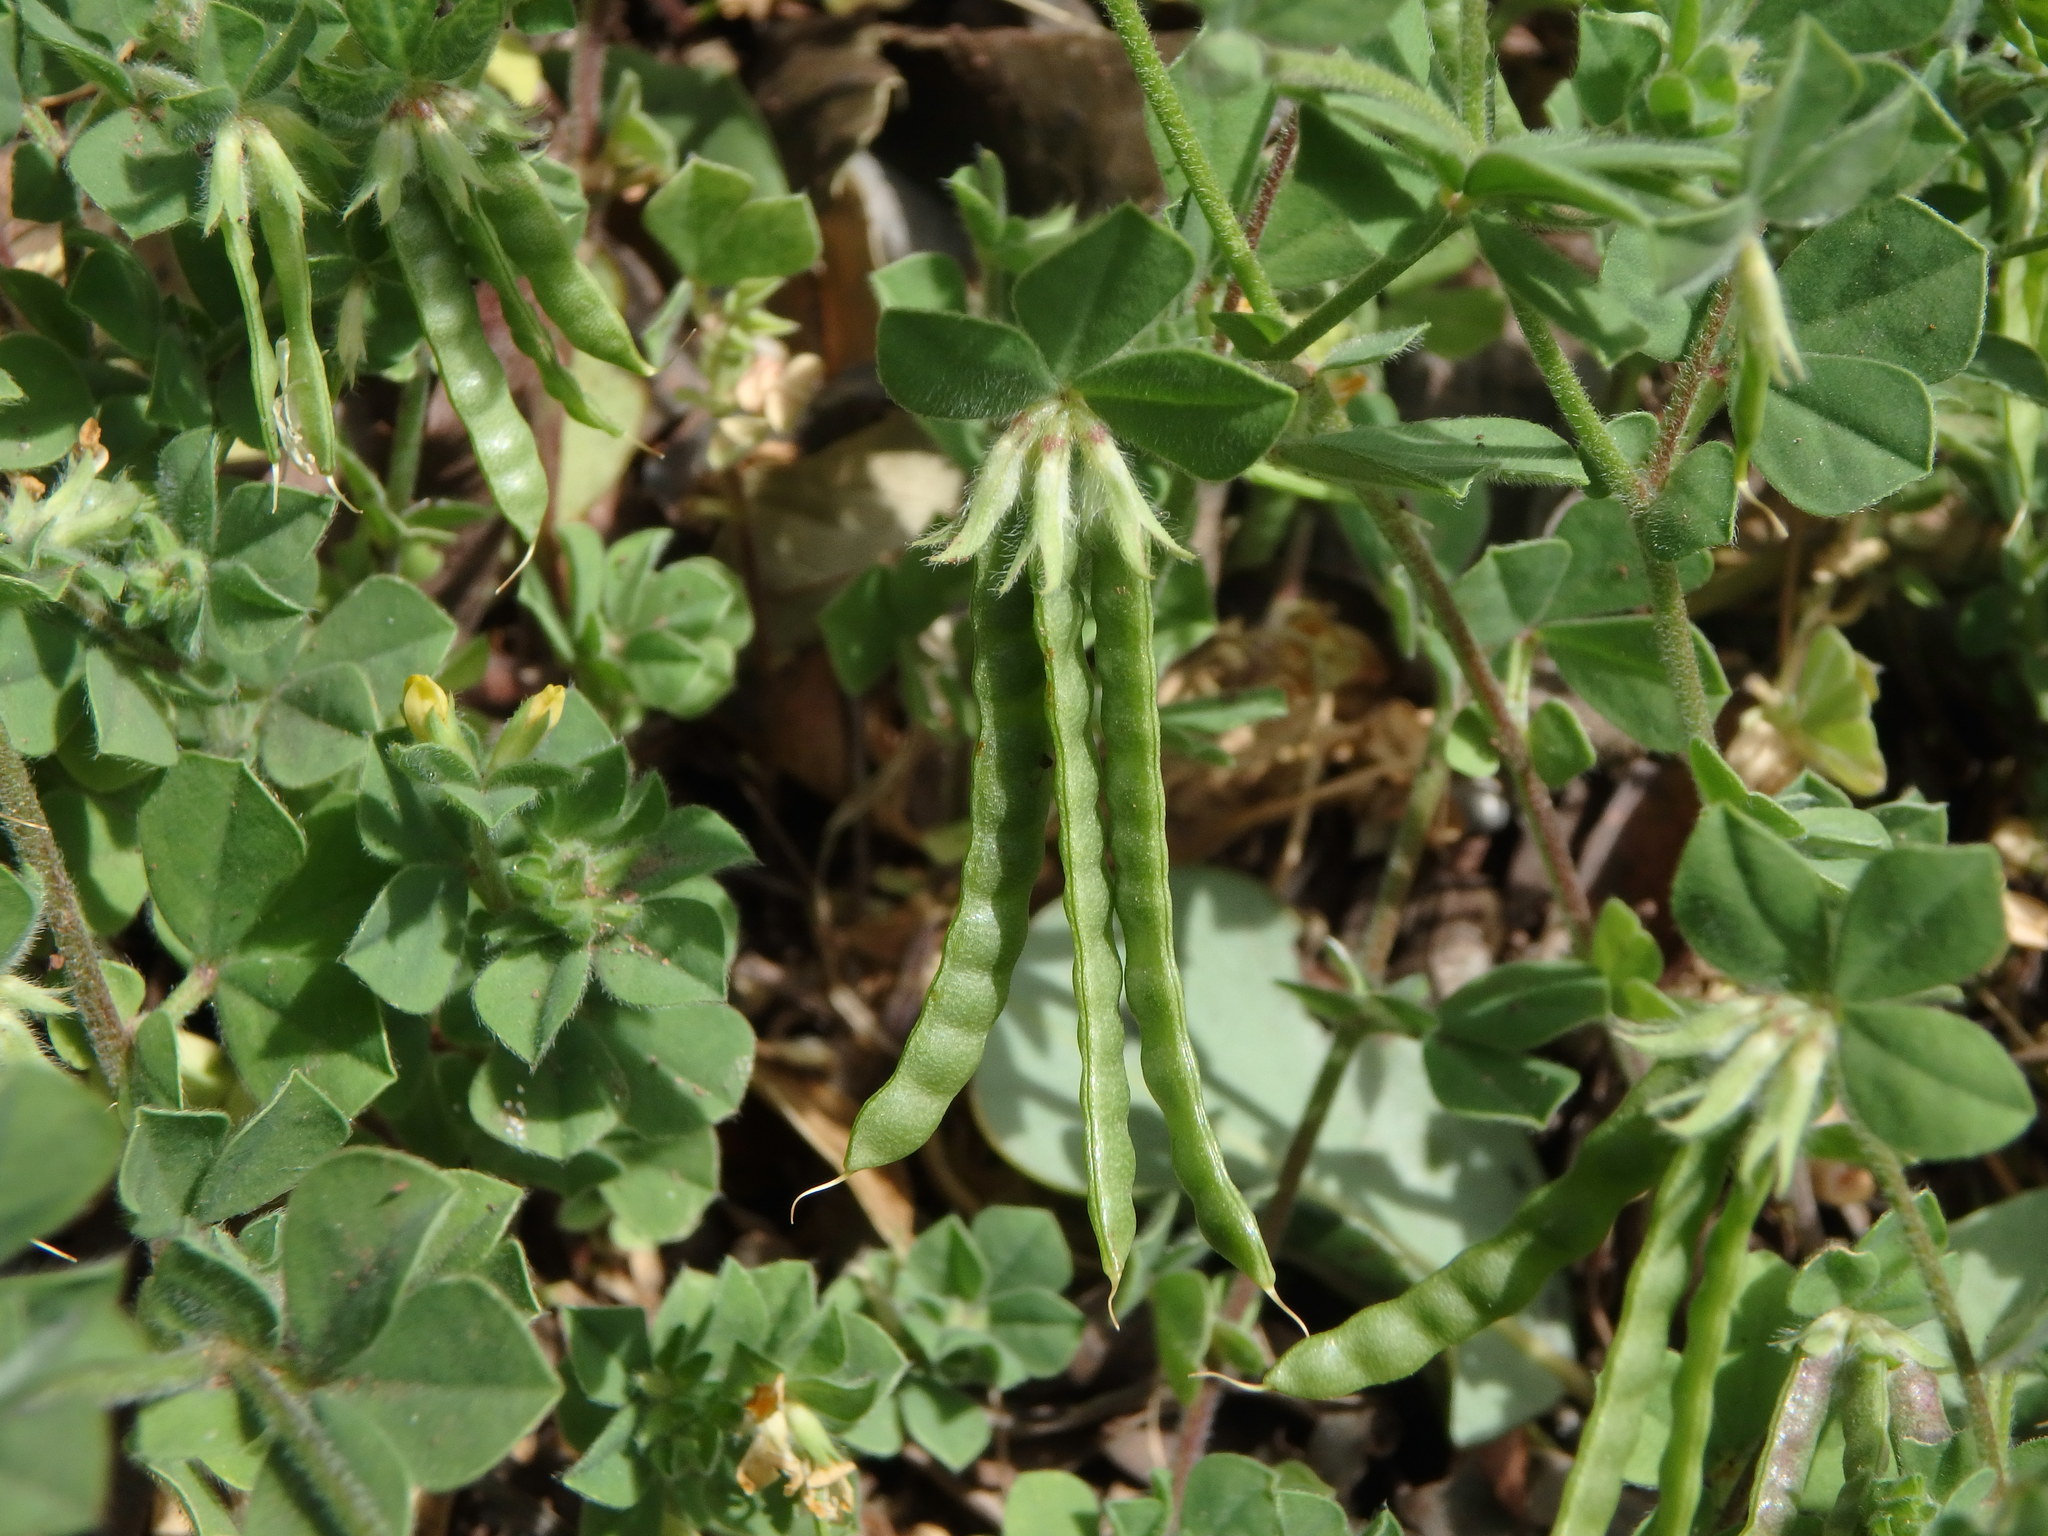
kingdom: Plantae
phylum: Tracheophyta
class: Magnoliopsida
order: Fabales
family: Fabaceae
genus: Lotus
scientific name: Lotus ornithopodioides
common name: Southern bird's-foot trefoil
